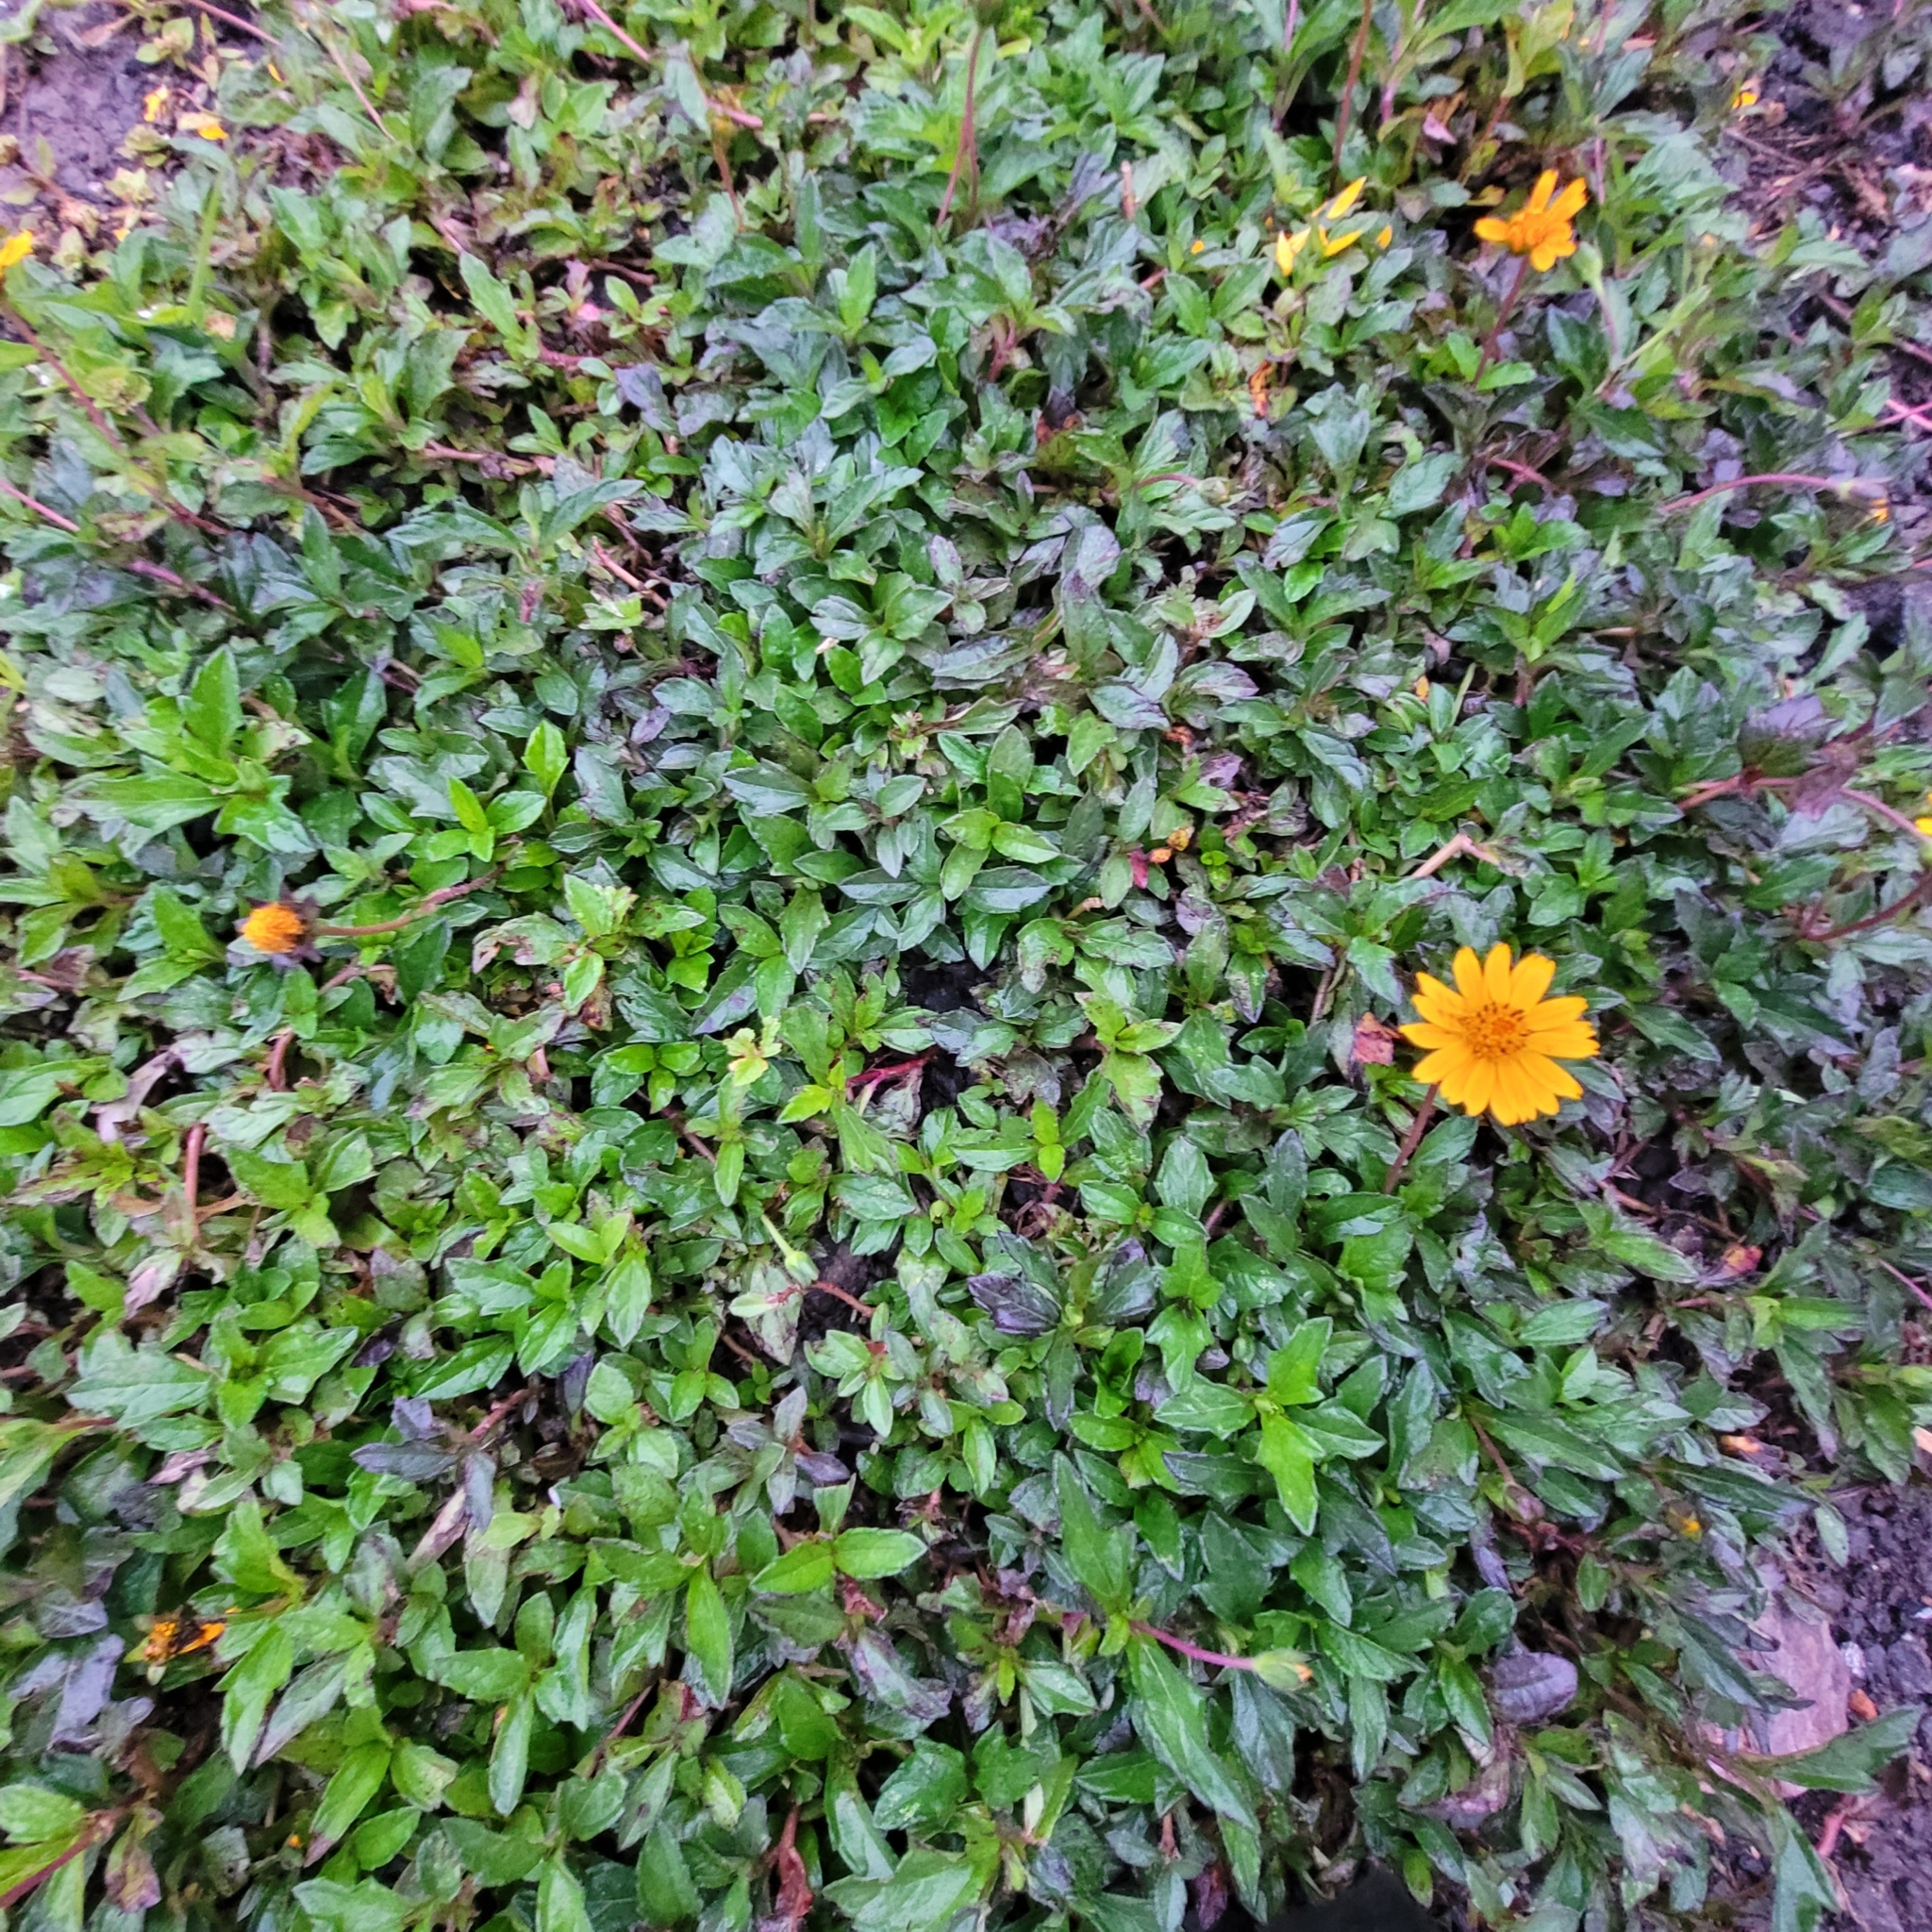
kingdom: Plantae
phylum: Tracheophyta
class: Magnoliopsida
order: Asterales
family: Asteraceae
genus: Sphagneticola
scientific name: Sphagneticola trilobata
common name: Bay biscayne creeping-oxeye
